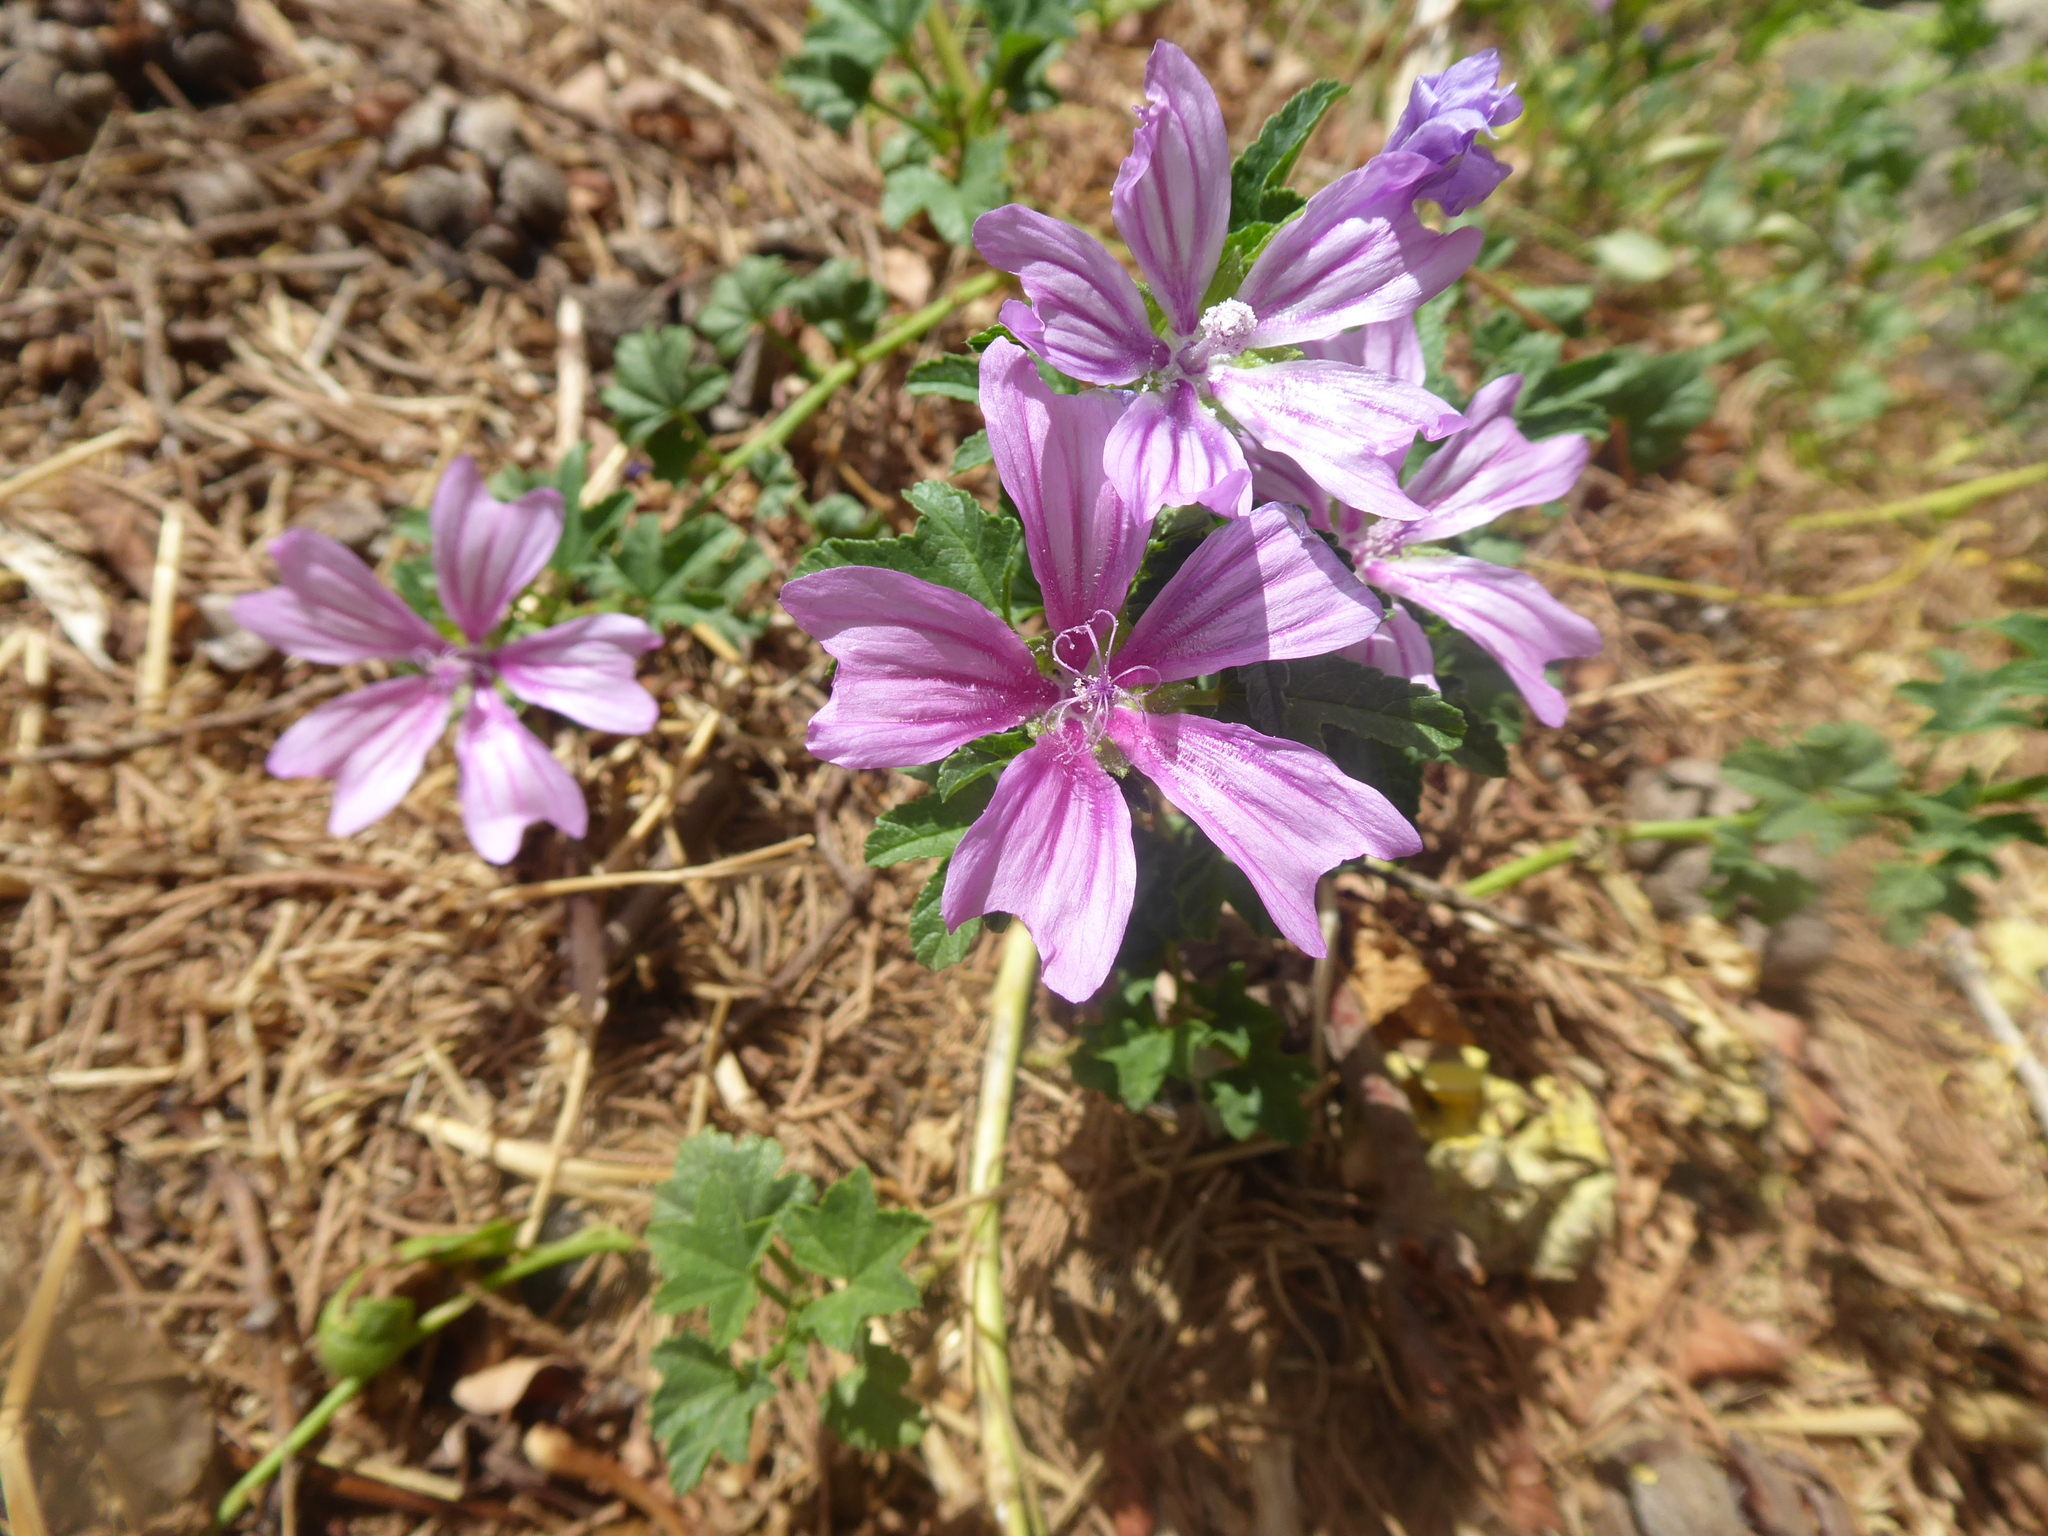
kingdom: Plantae
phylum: Tracheophyta
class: Magnoliopsida
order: Malvales
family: Malvaceae
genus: Malva
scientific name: Malva sylvestris
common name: Common mallow
